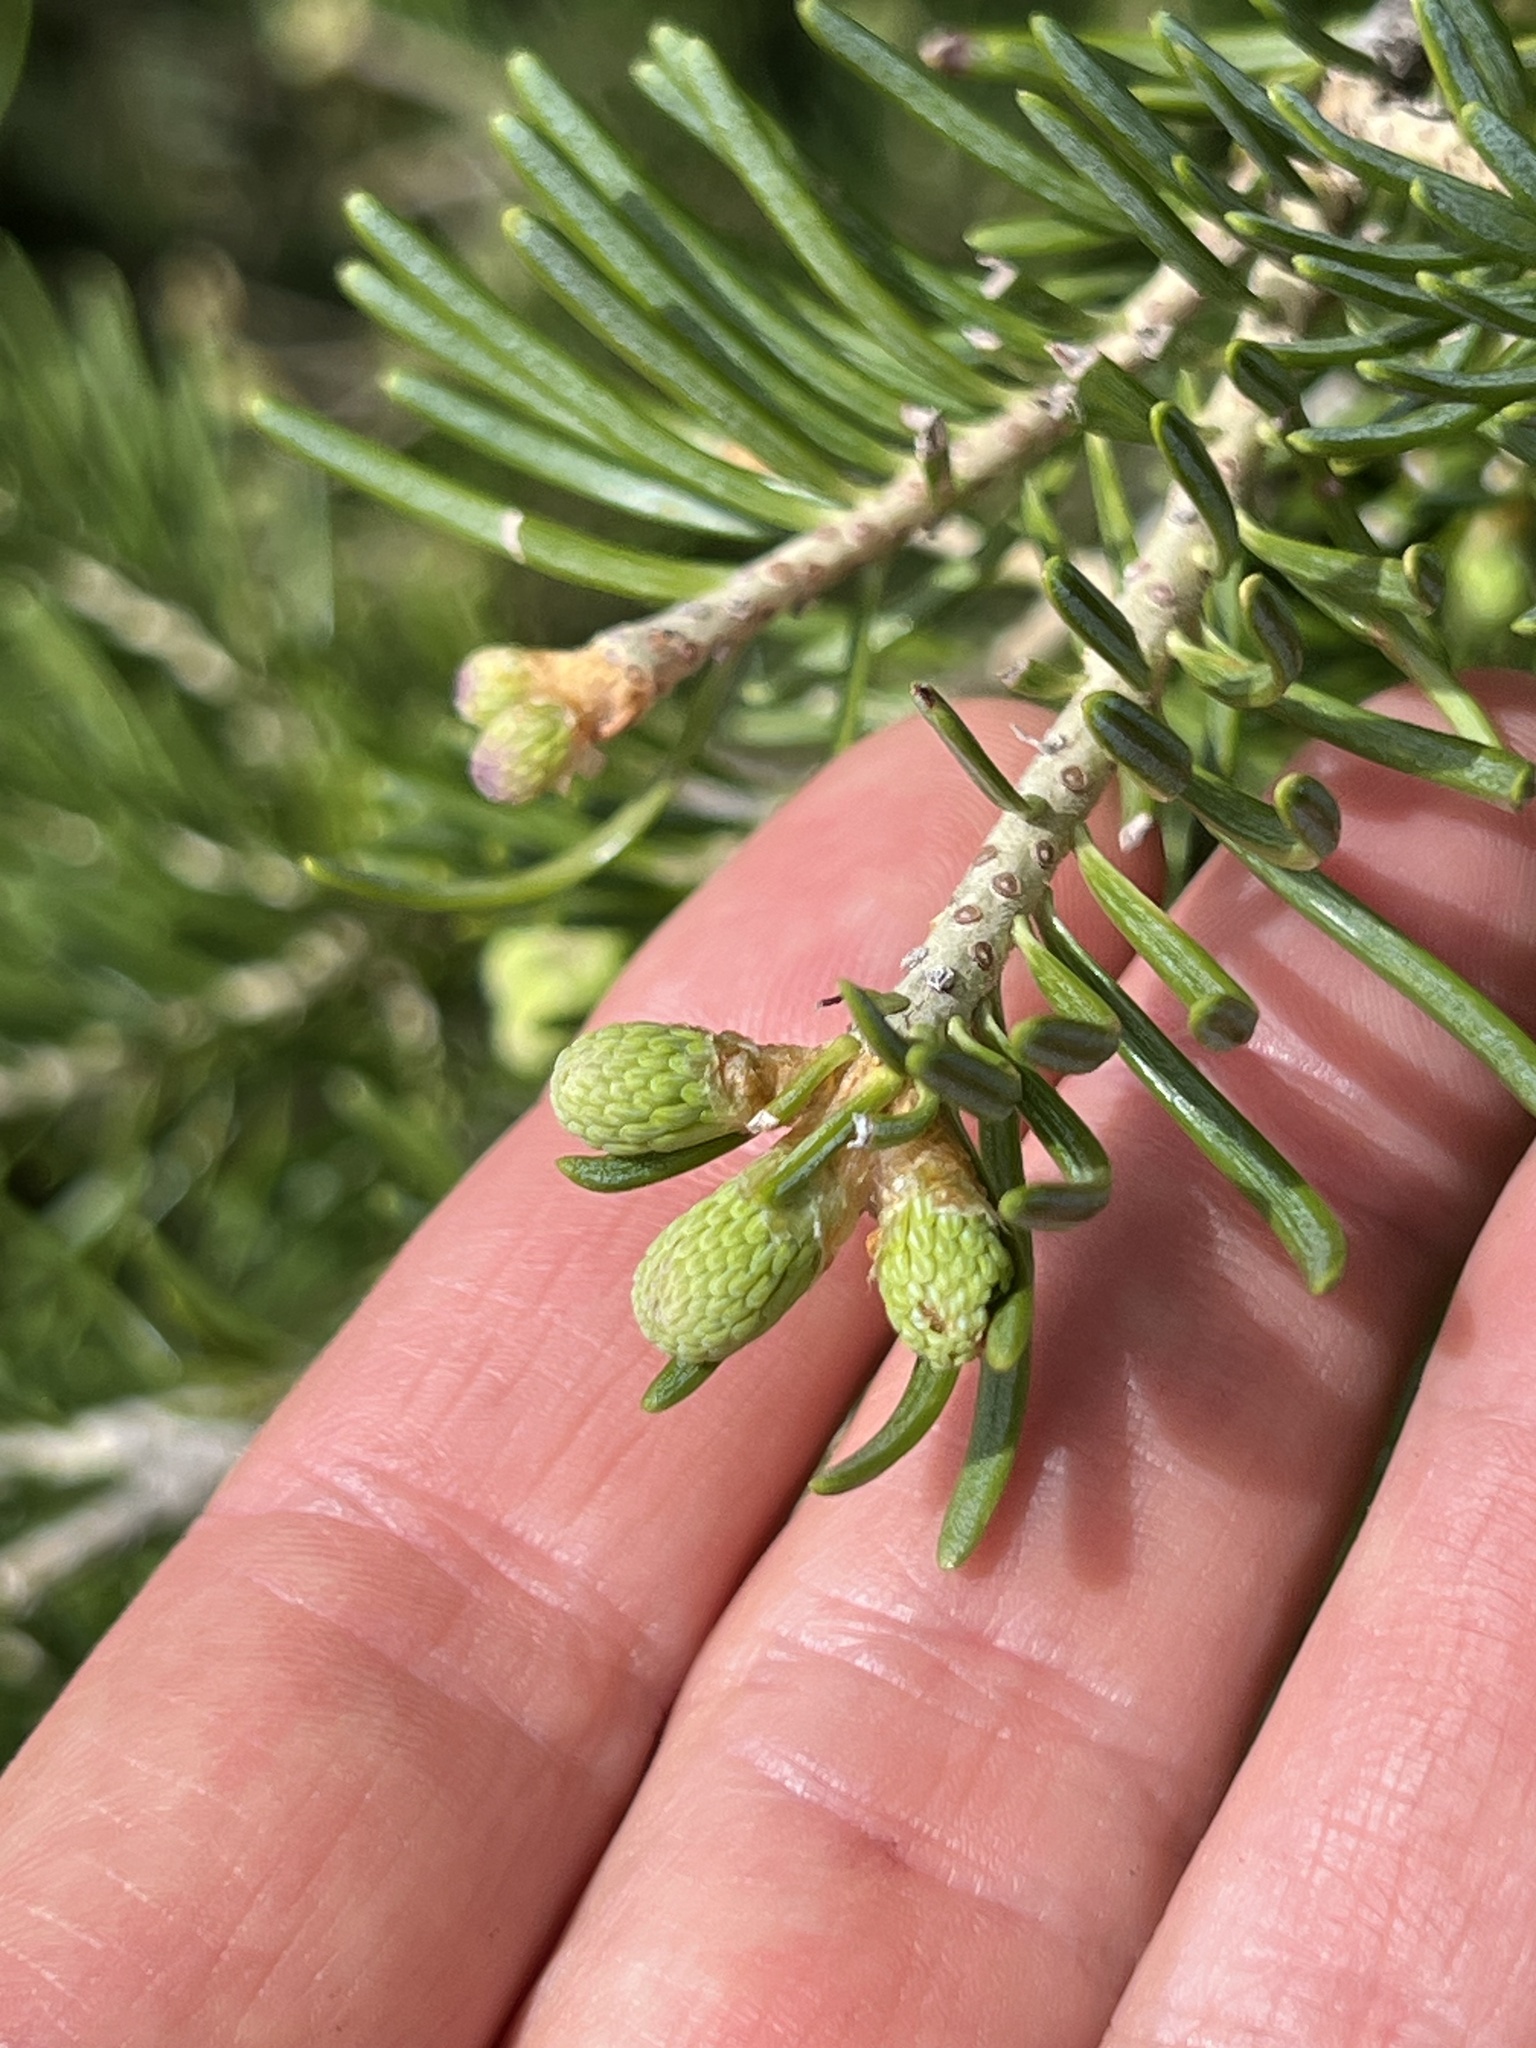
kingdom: Plantae
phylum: Tracheophyta
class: Pinopsida
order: Pinales
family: Pinaceae
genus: Abies
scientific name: Abies lasiocarpa
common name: Subalpine fir
